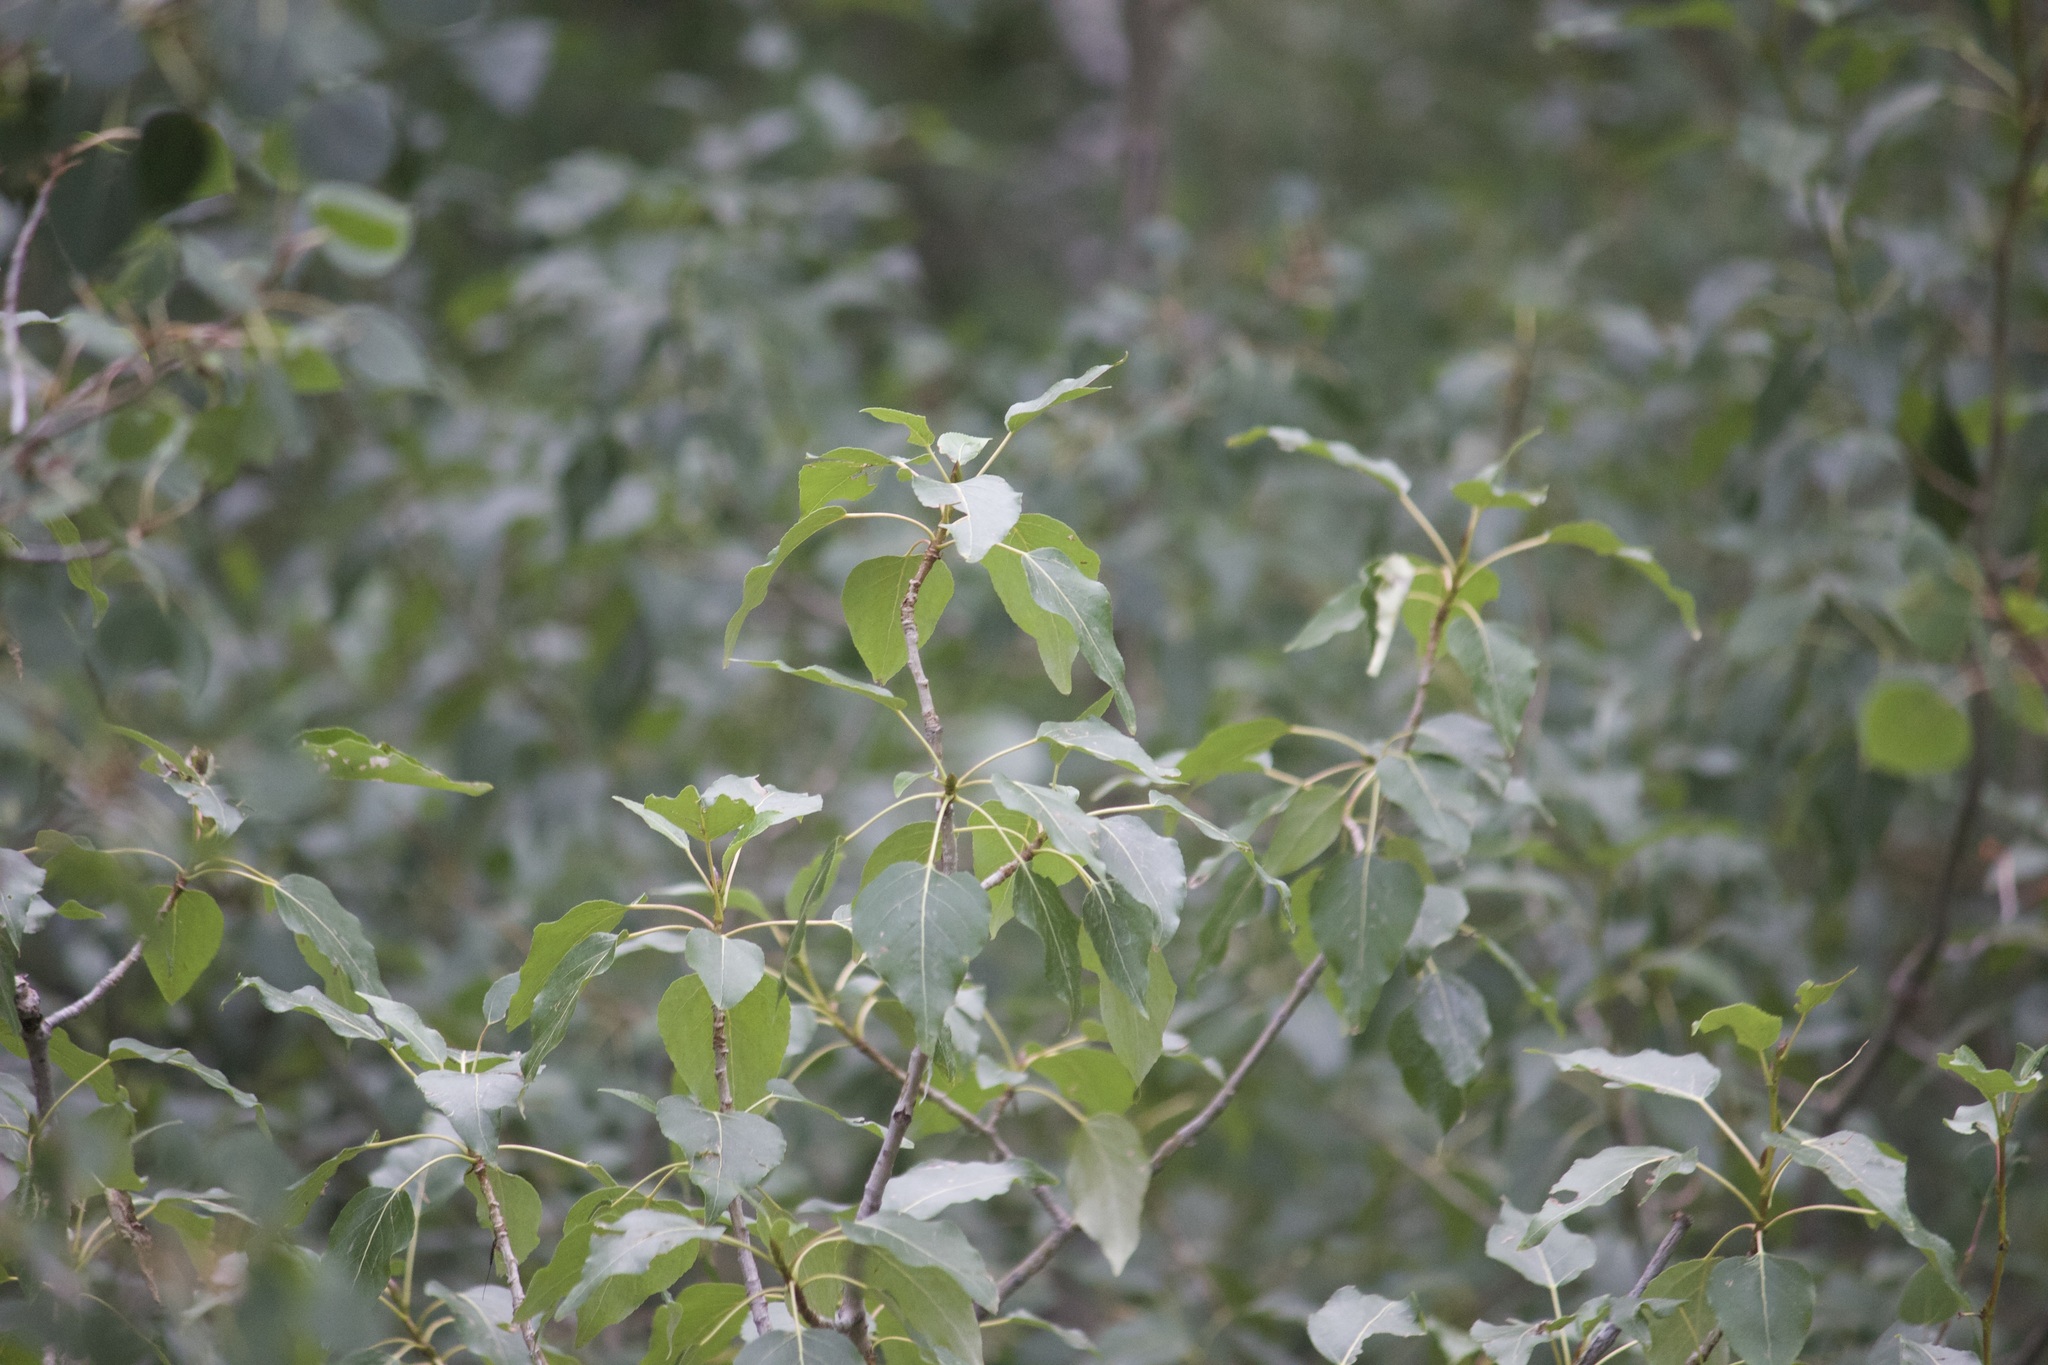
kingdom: Plantae
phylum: Tracheophyta
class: Magnoliopsida
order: Malpighiales
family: Salicaceae
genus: Populus
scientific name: Populus trichocarpa
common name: Black cottonwood
